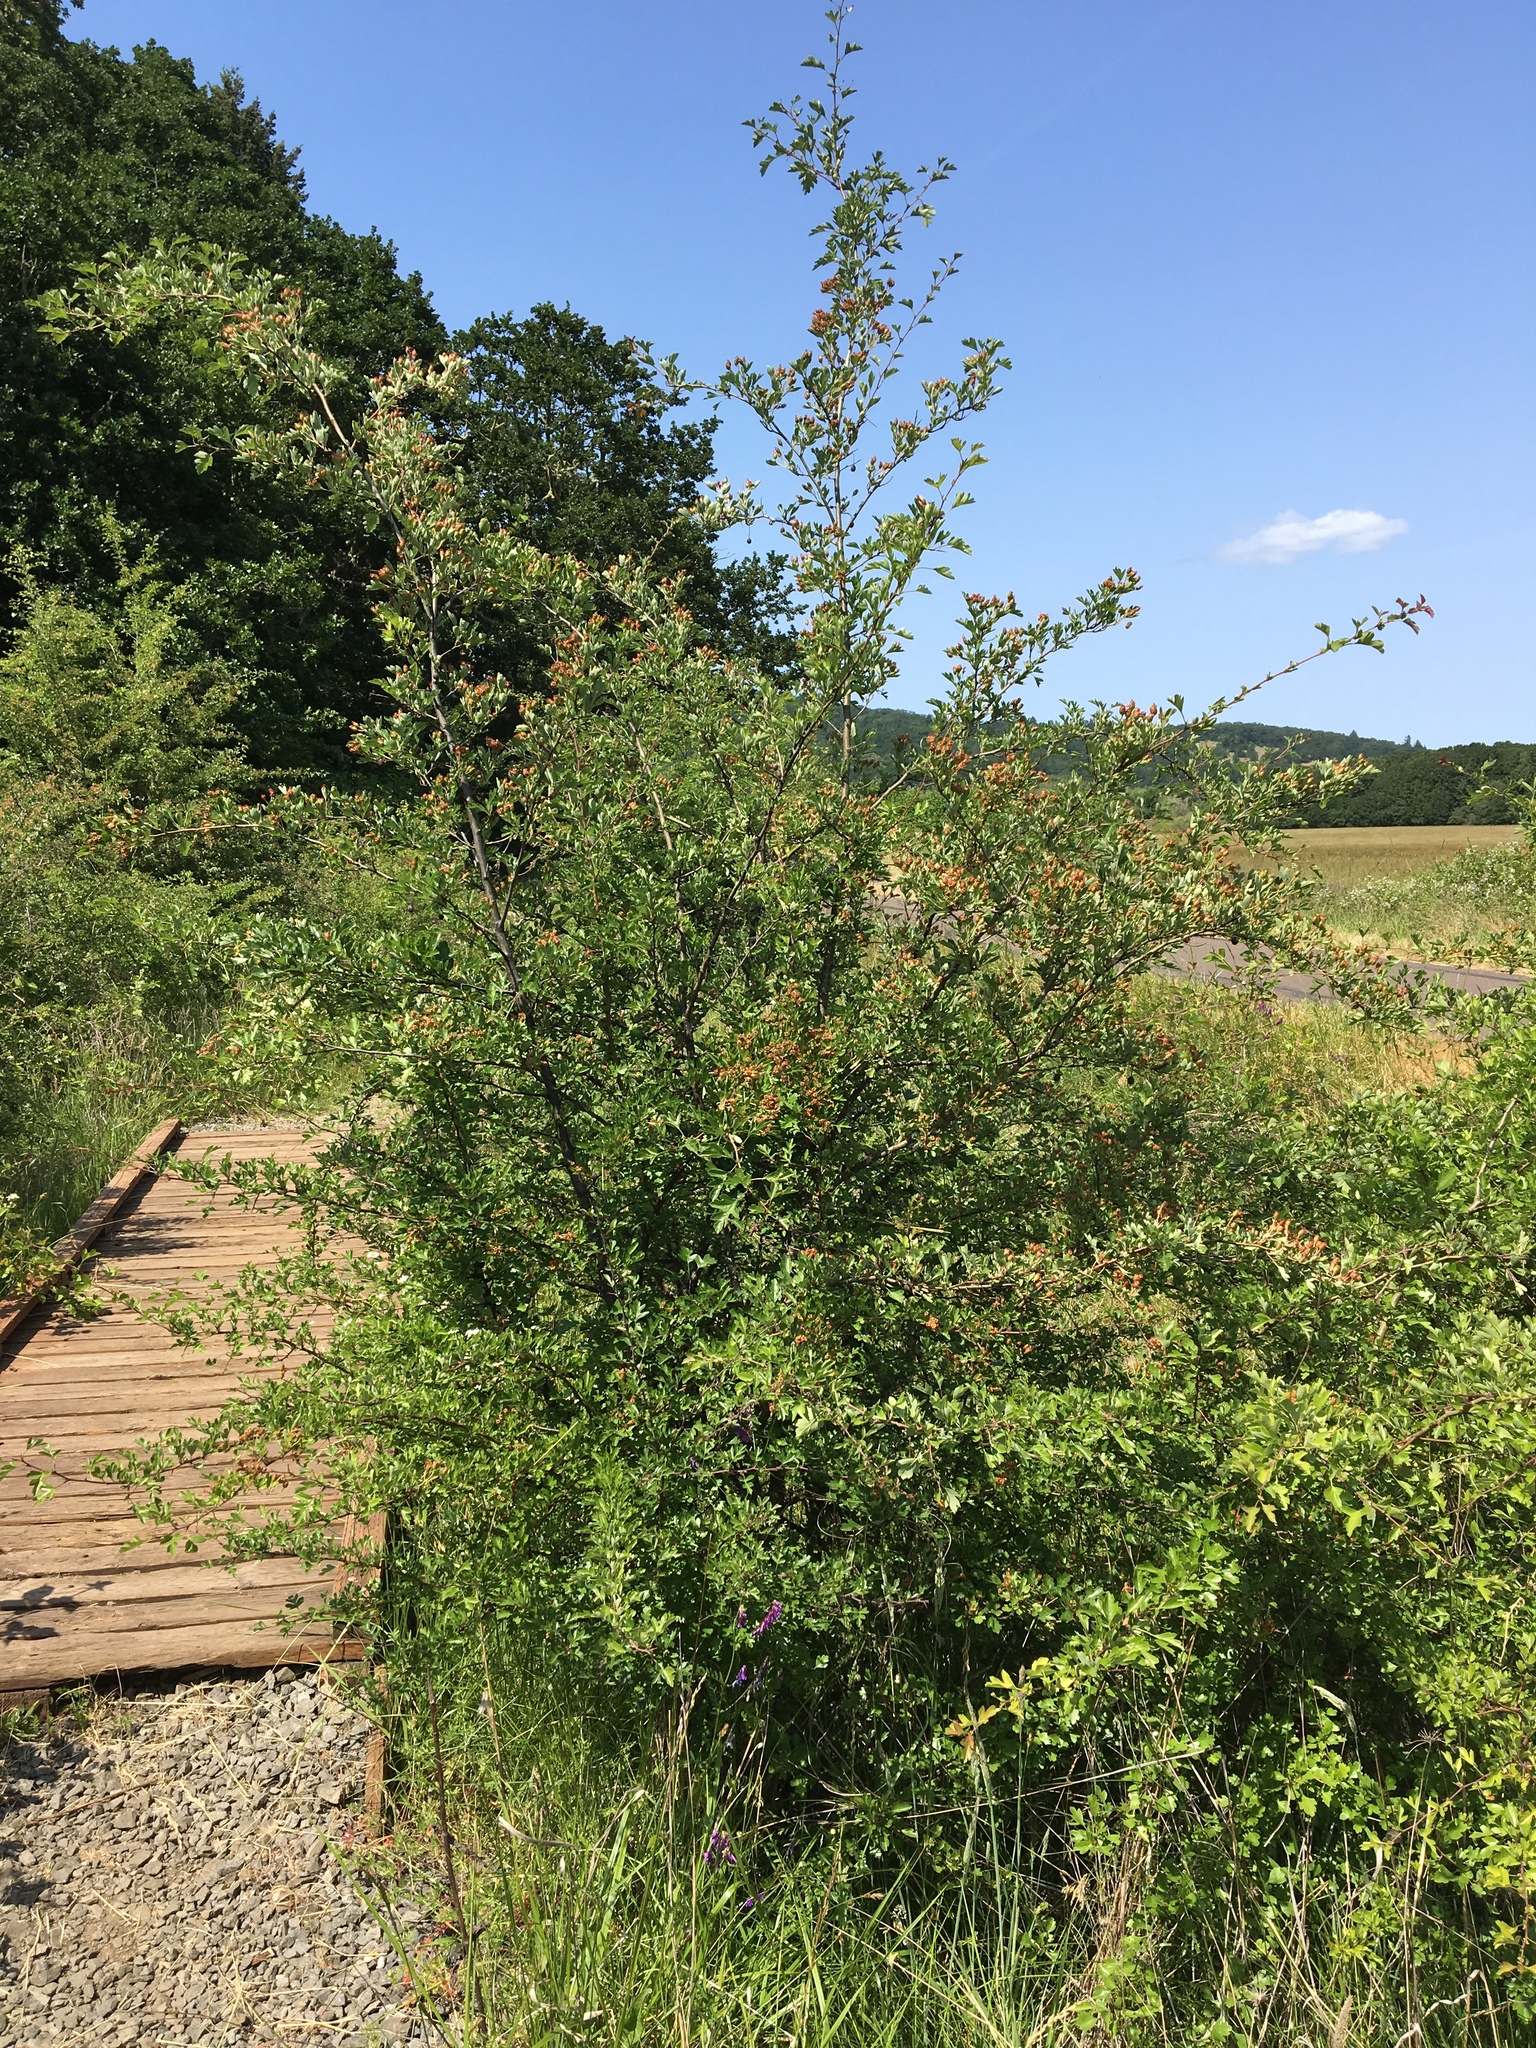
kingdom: Plantae
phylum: Tracheophyta
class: Magnoliopsida
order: Rosales
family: Rosaceae
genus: Crataegus
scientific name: Crataegus monogyna
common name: Hawthorn
